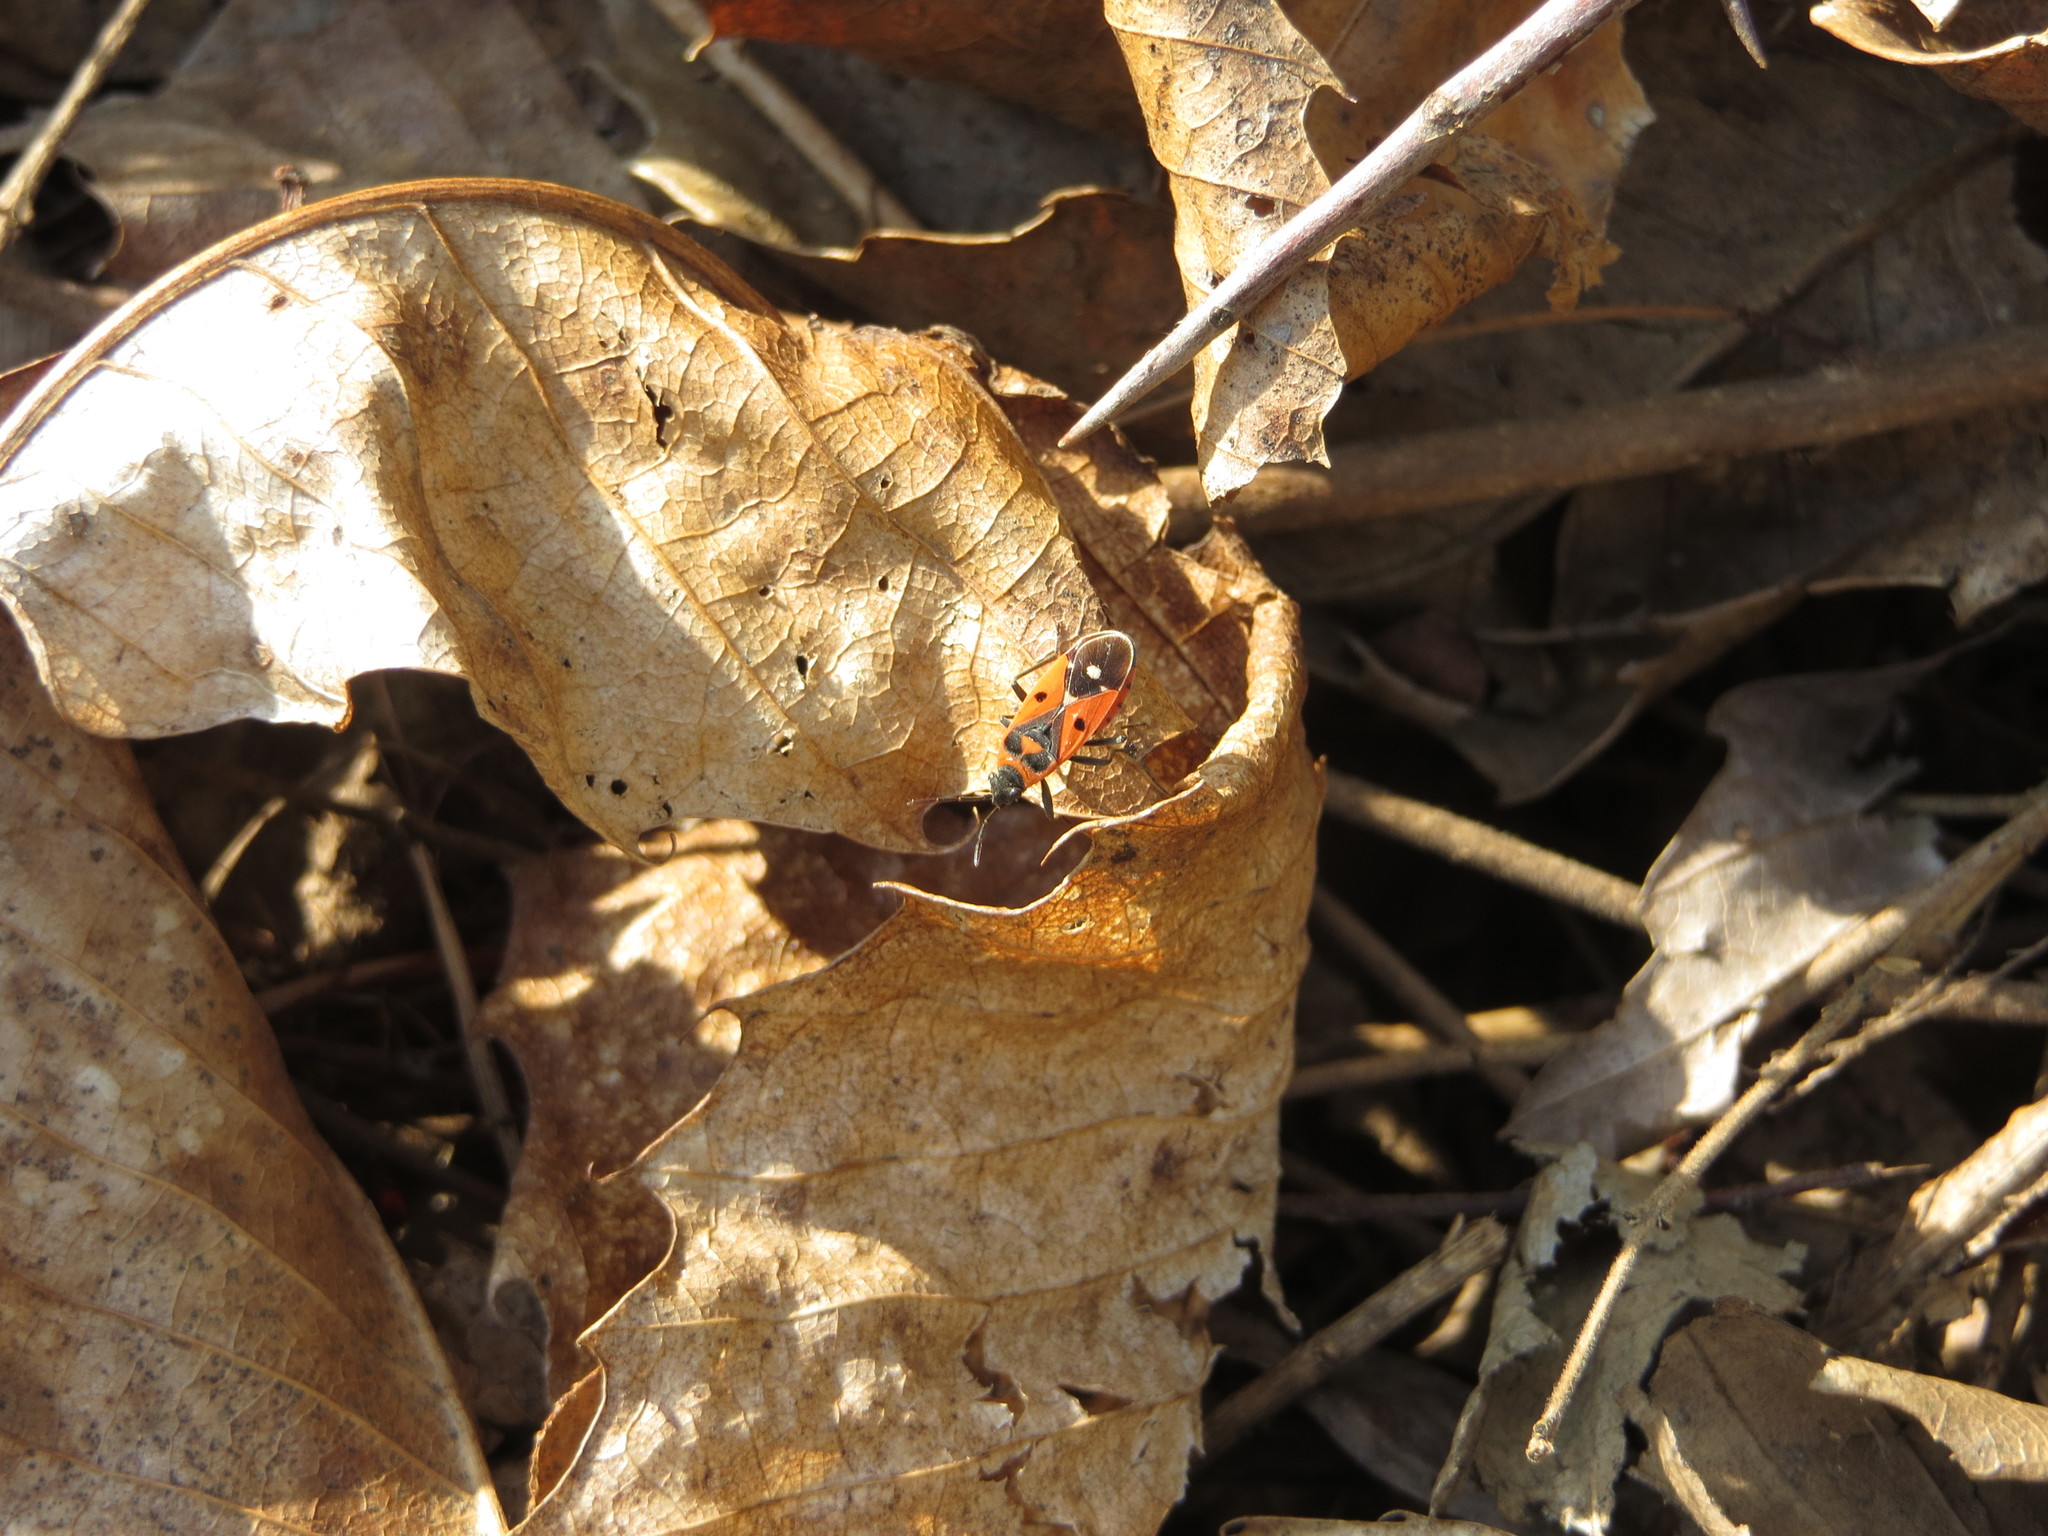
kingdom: Animalia
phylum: Arthropoda
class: Insecta
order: Hemiptera
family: Lygaeidae
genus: Melanocoryphus
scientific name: Melanocoryphus albomaculatus
